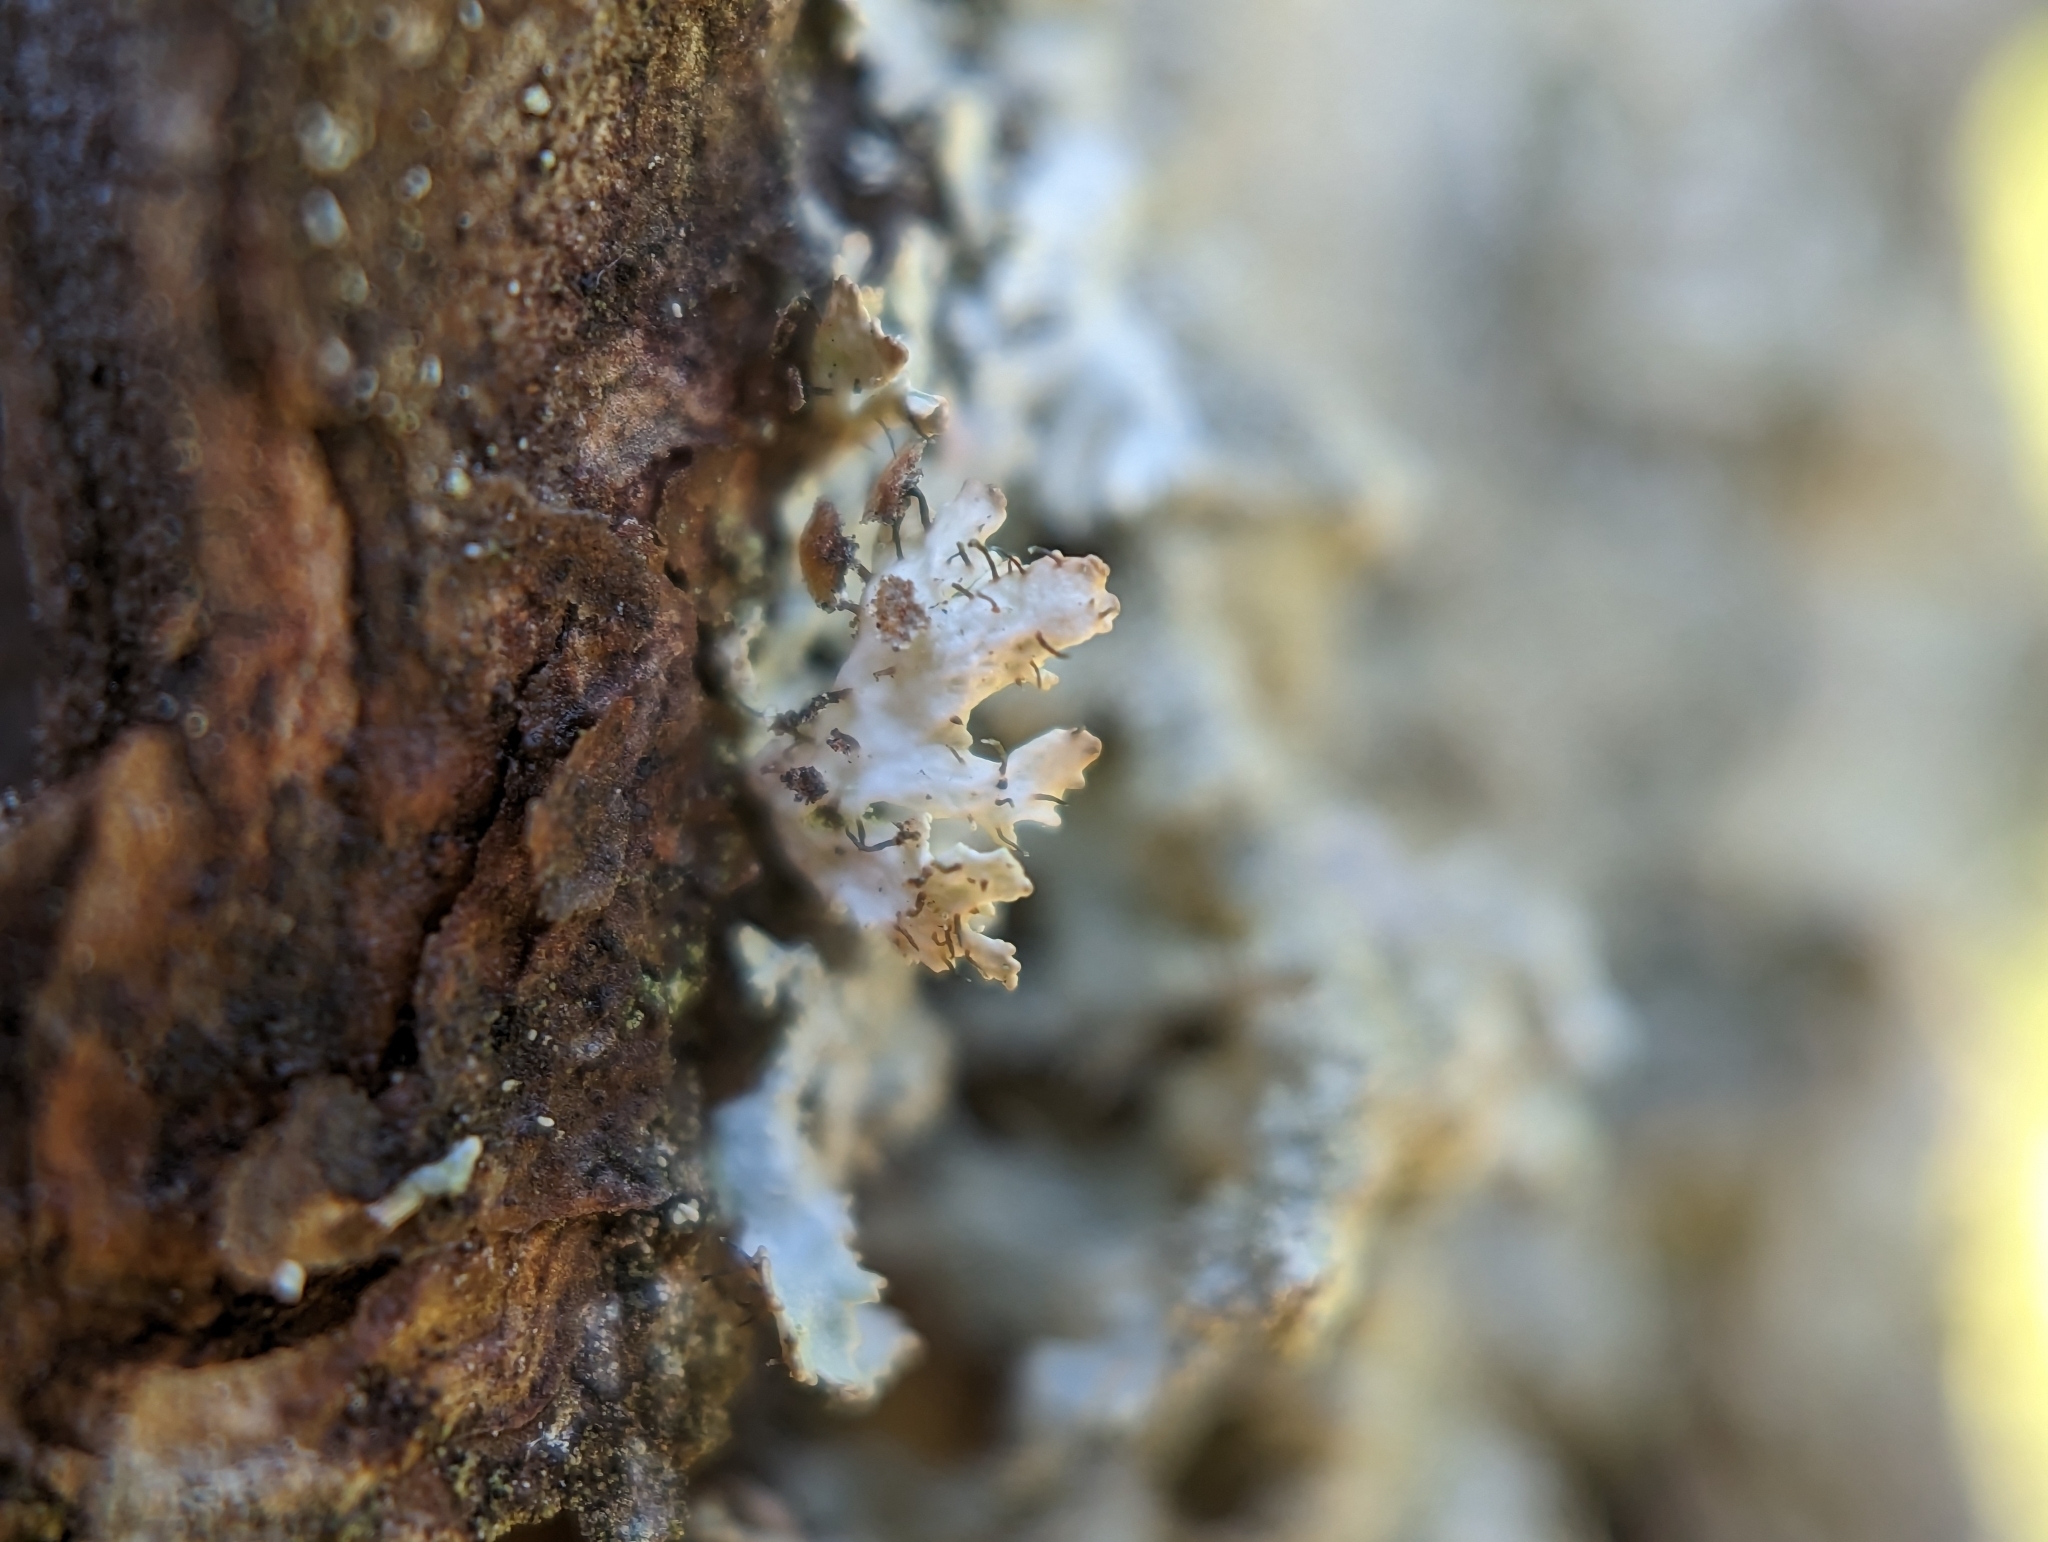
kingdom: Fungi
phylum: Ascomycota
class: Lecanoromycetes
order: Lecanorales
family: Parmeliaceae
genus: Imshaugia
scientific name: Imshaugia aleurites
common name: Salted starburst lichen
